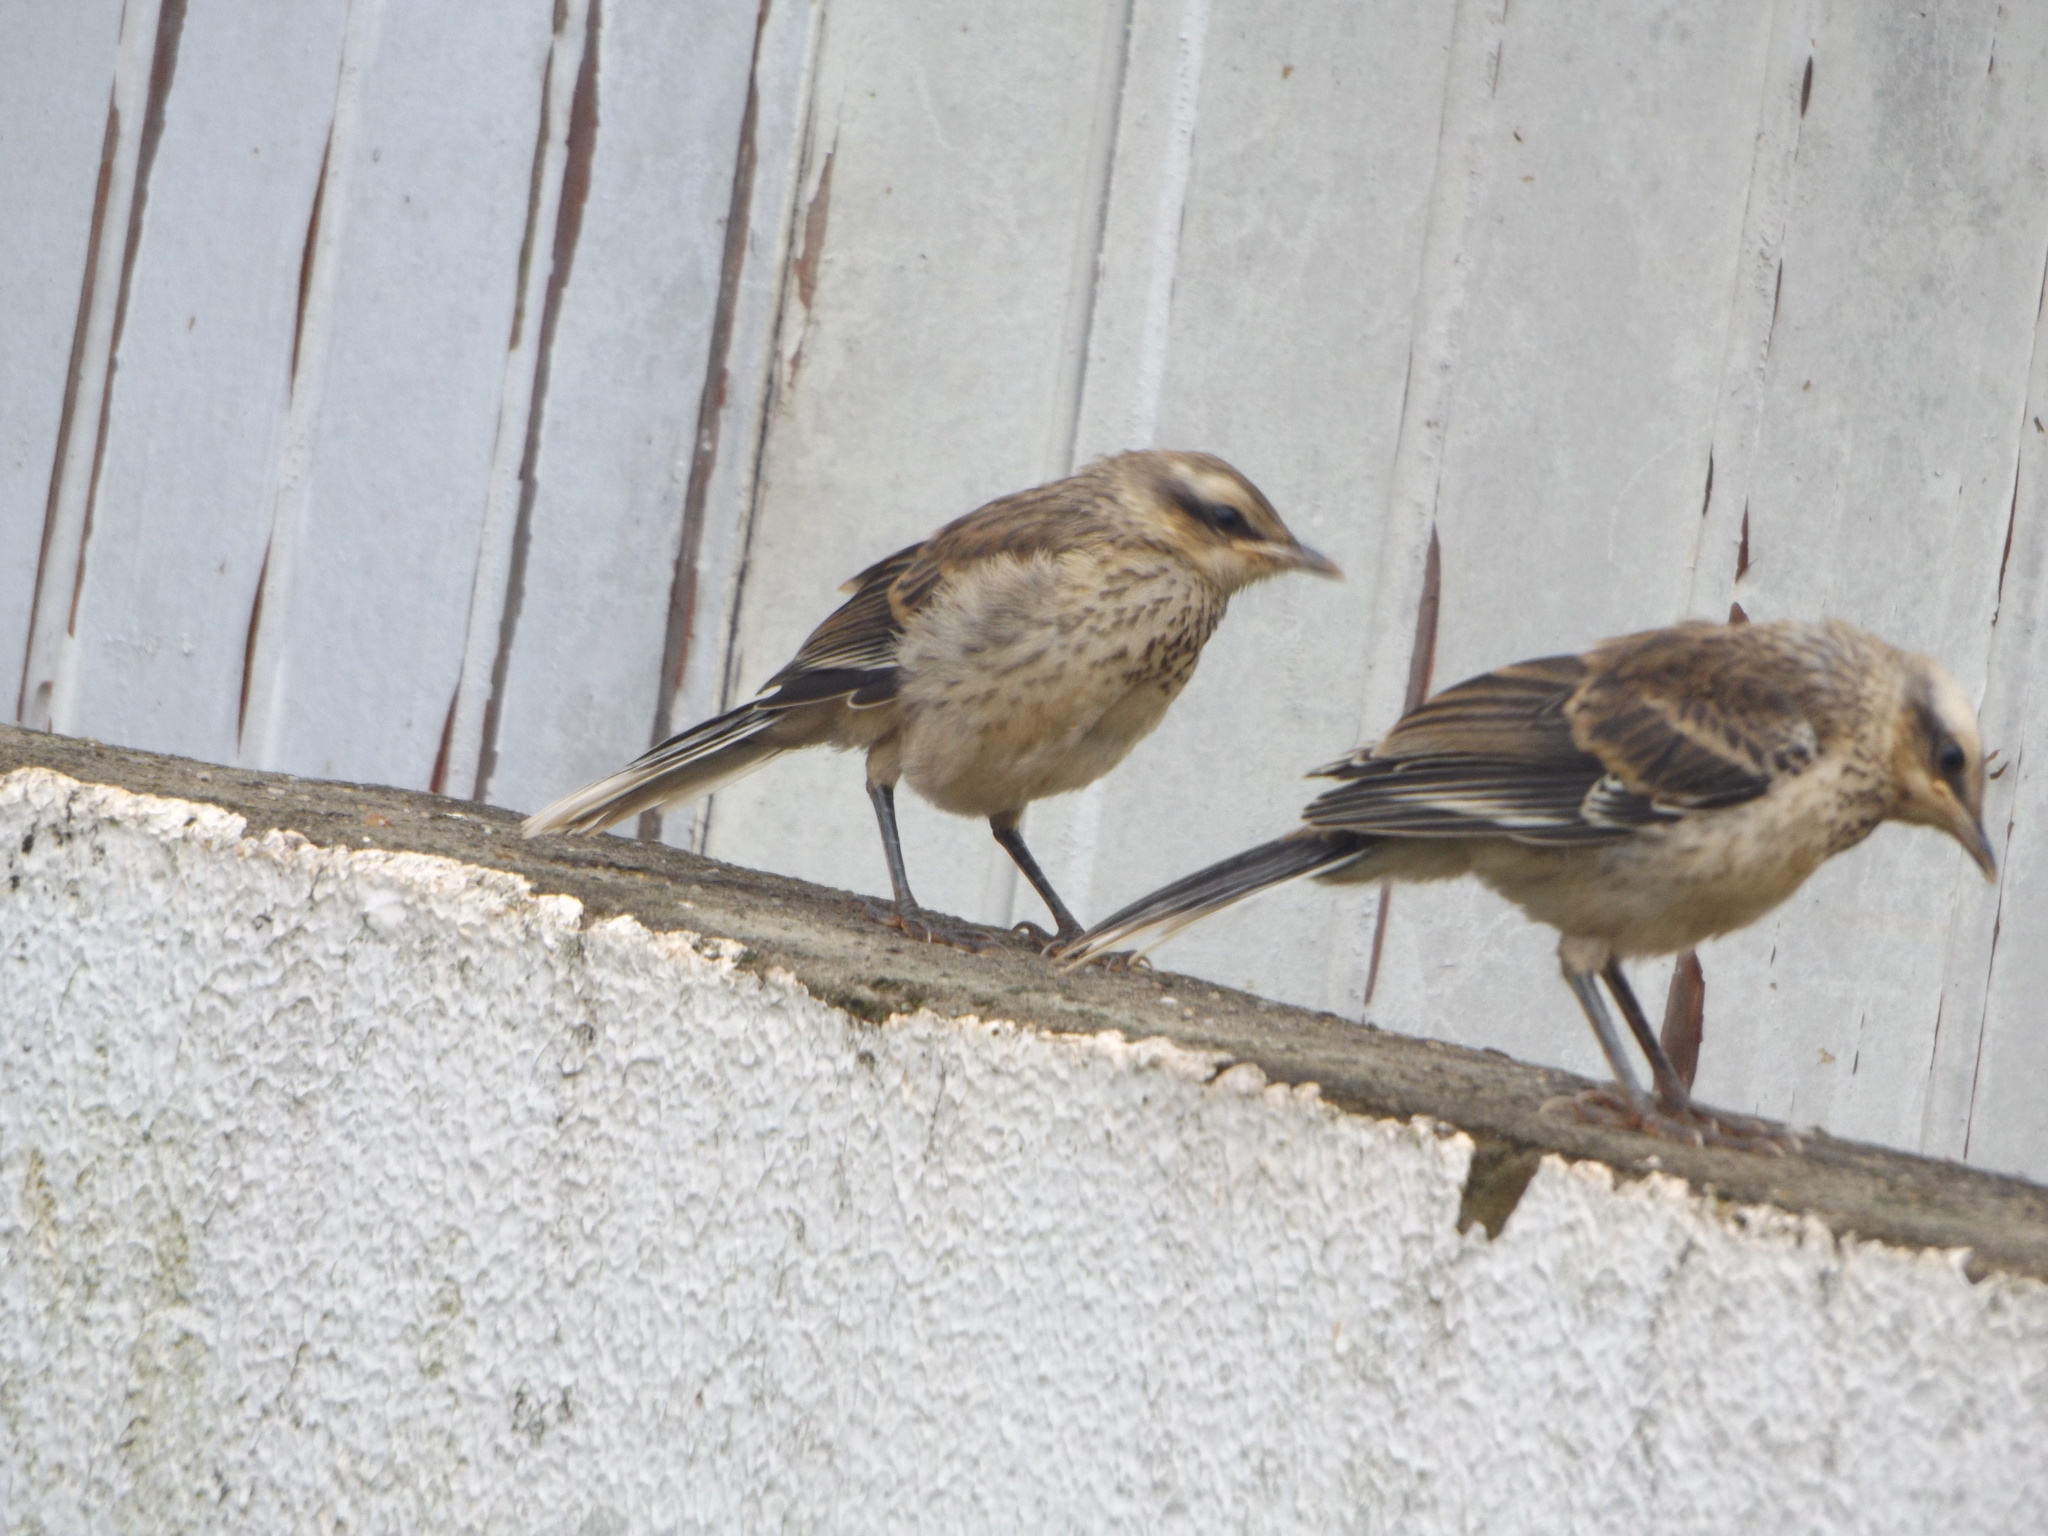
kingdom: Animalia
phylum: Chordata
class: Aves
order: Passeriformes
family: Mimidae
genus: Mimus
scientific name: Mimus saturninus
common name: Chalk-browed mockingbird
